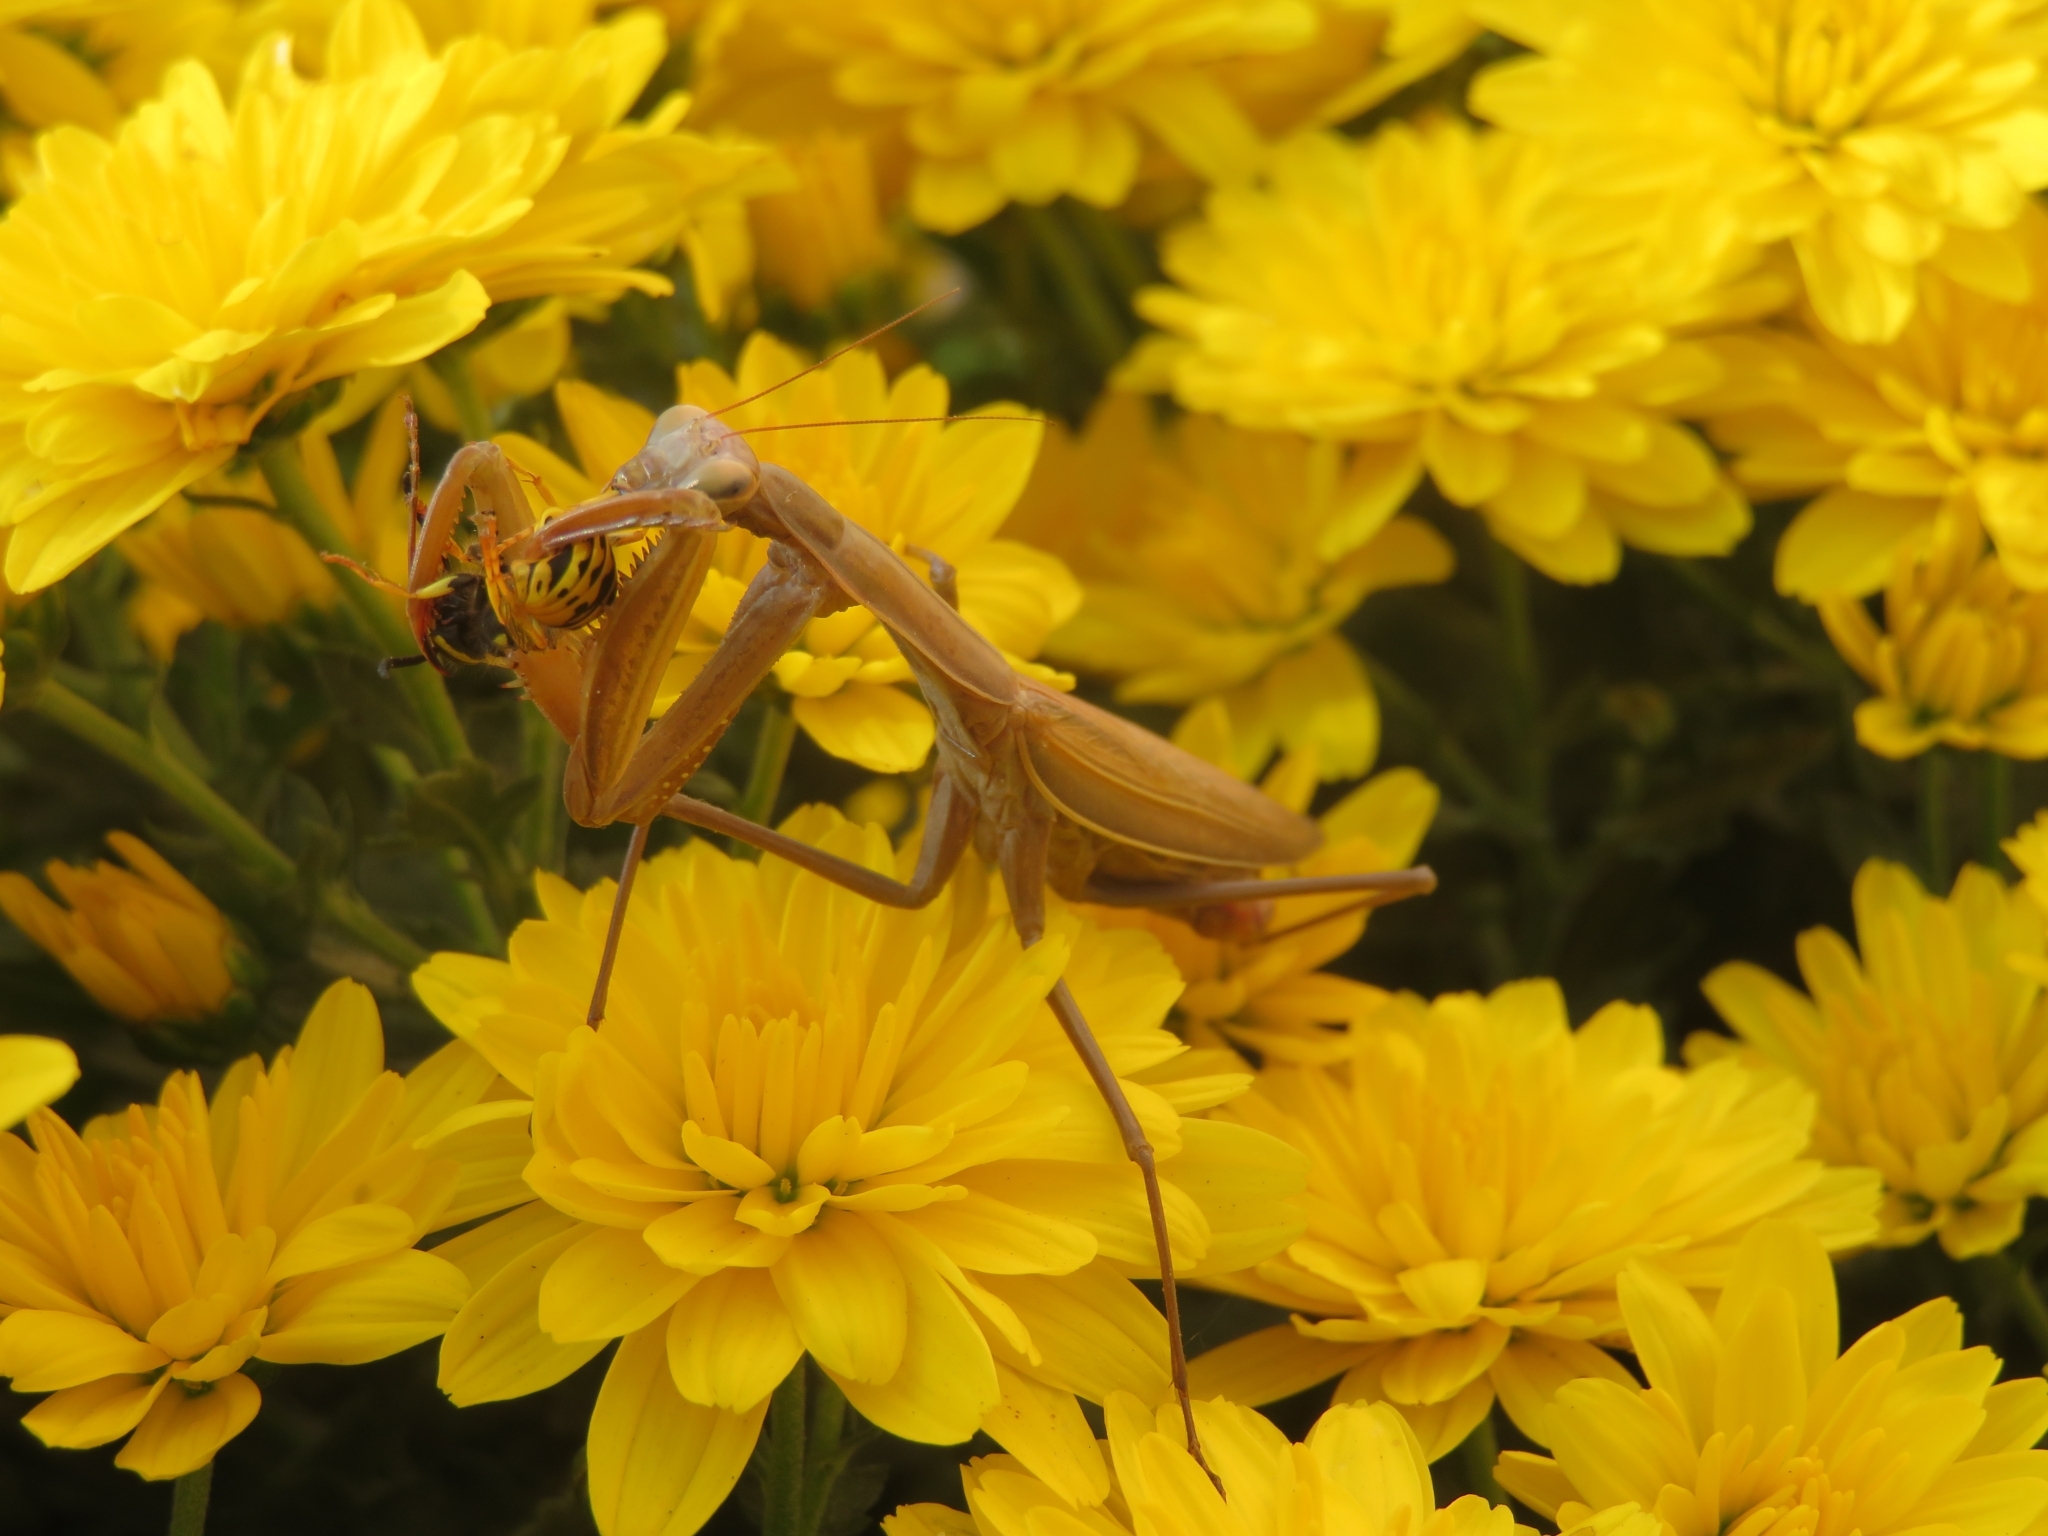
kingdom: Animalia
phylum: Arthropoda
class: Insecta
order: Mantodea
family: Mantidae
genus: Mantis
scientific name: Mantis religiosa
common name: Praying mantis
